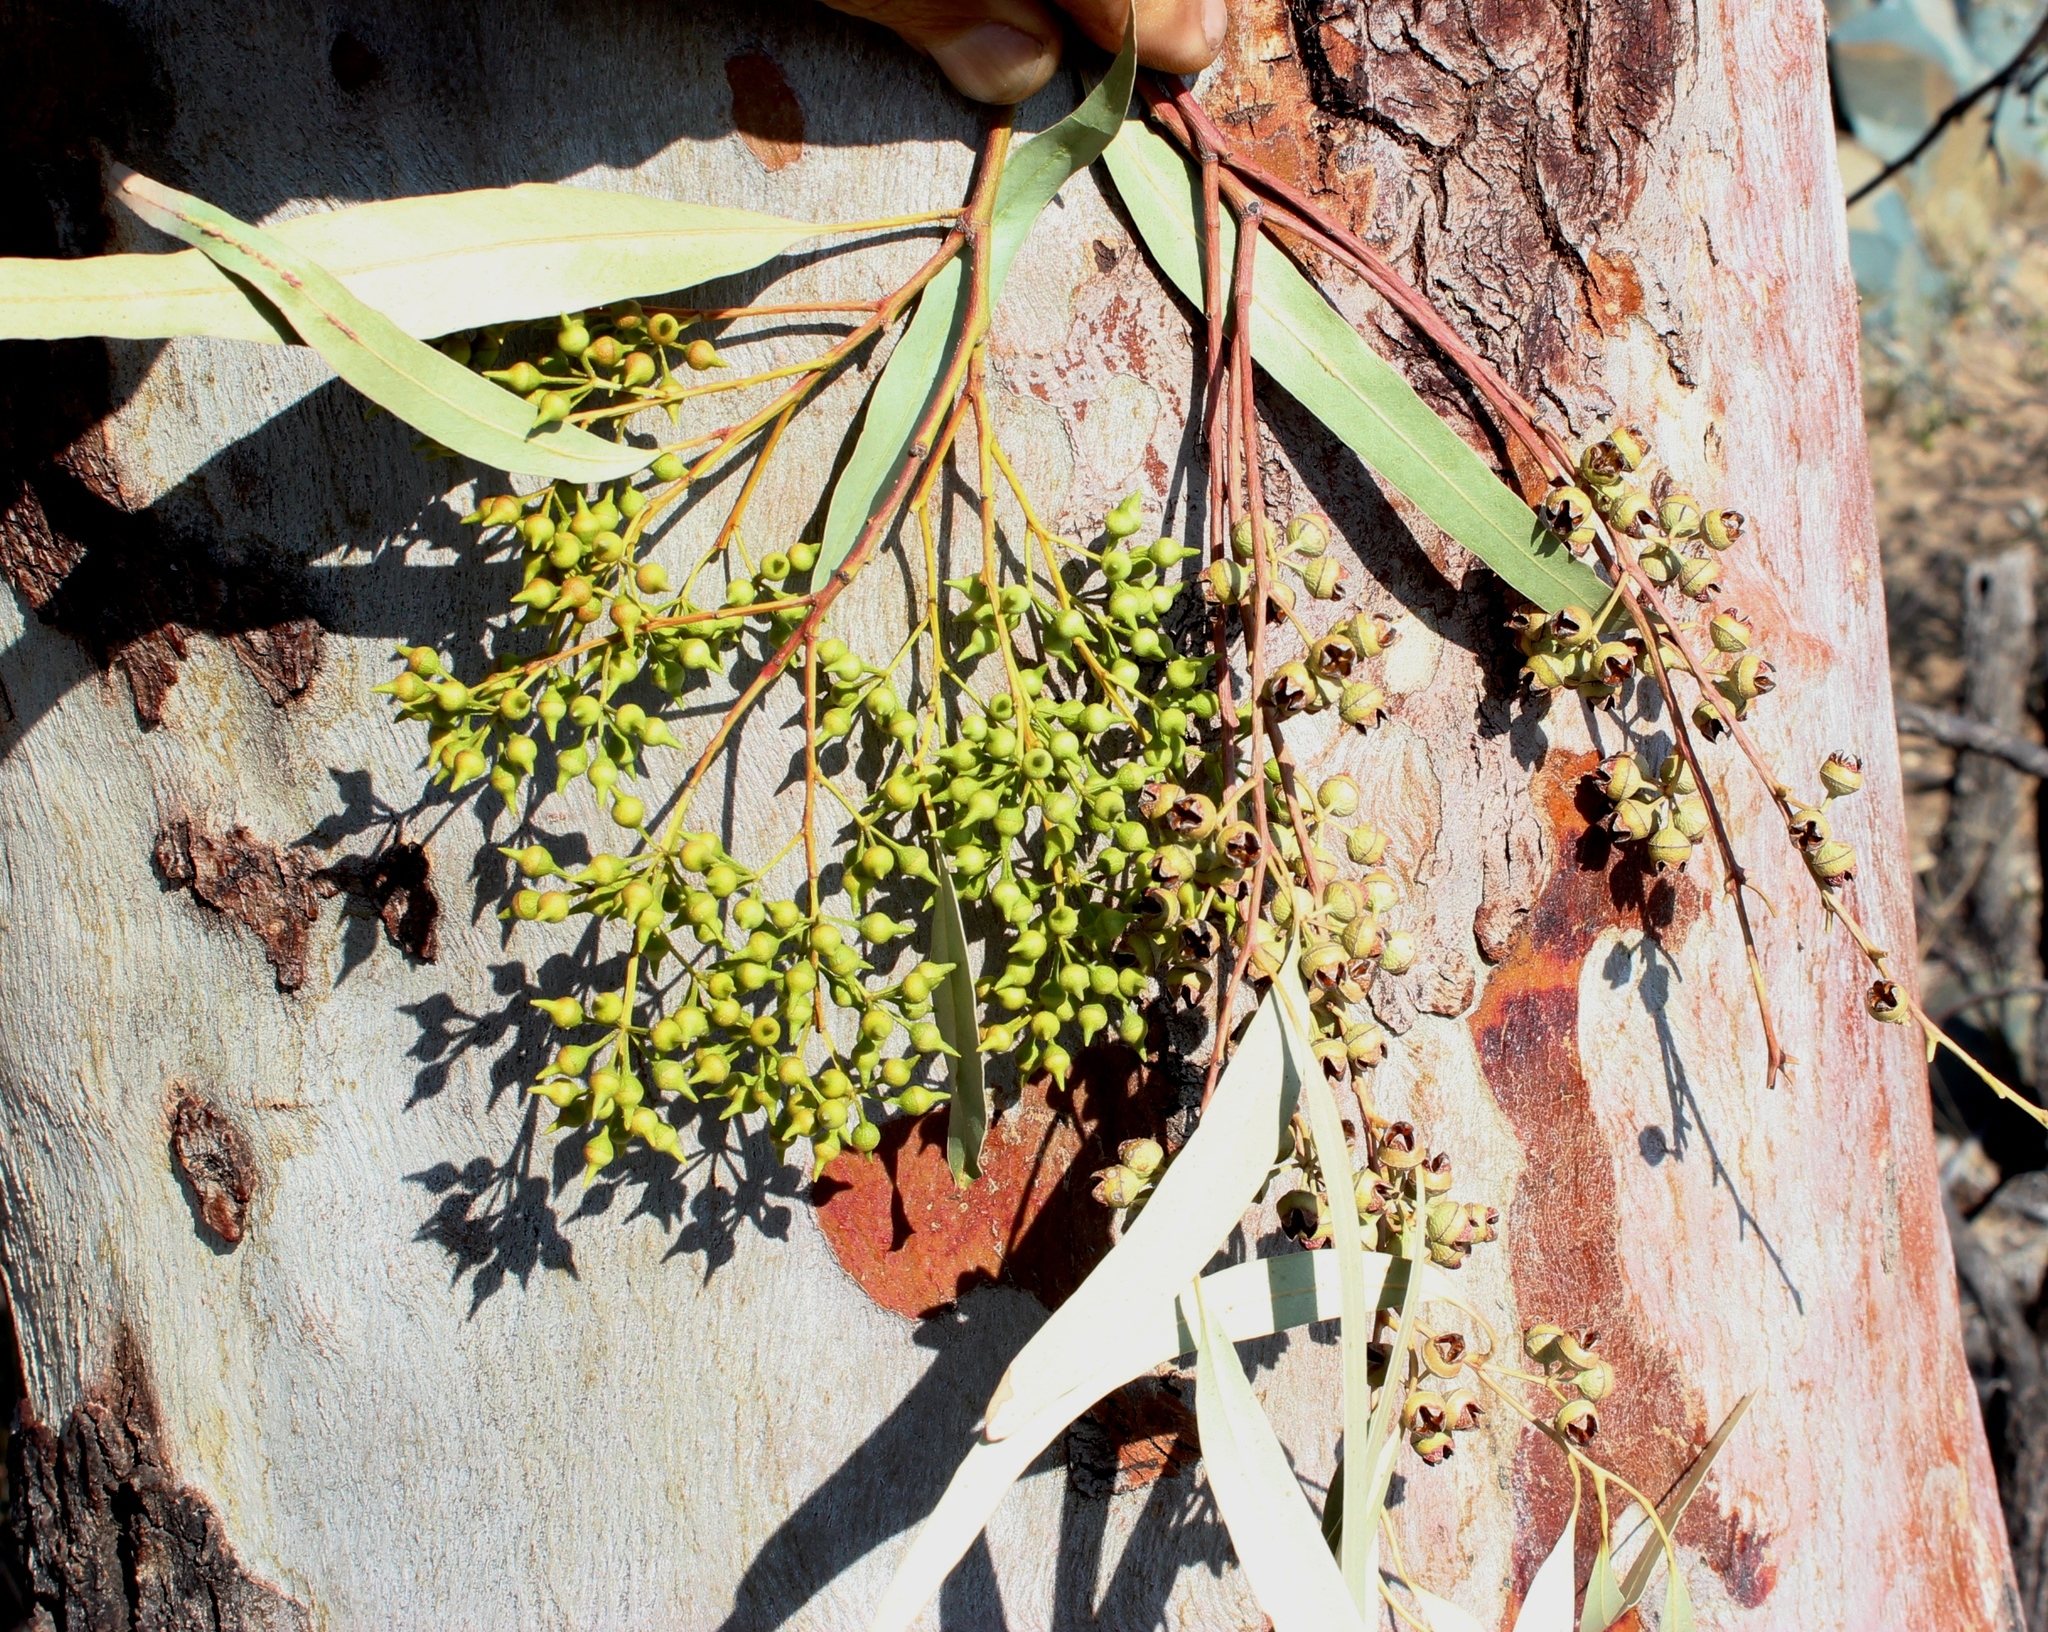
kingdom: Plantae
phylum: Tracheophyta
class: Magnoliopsida
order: Myrtales
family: Myrtaceae
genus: Eucalyptus
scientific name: Eucalyptus camaldulensis
